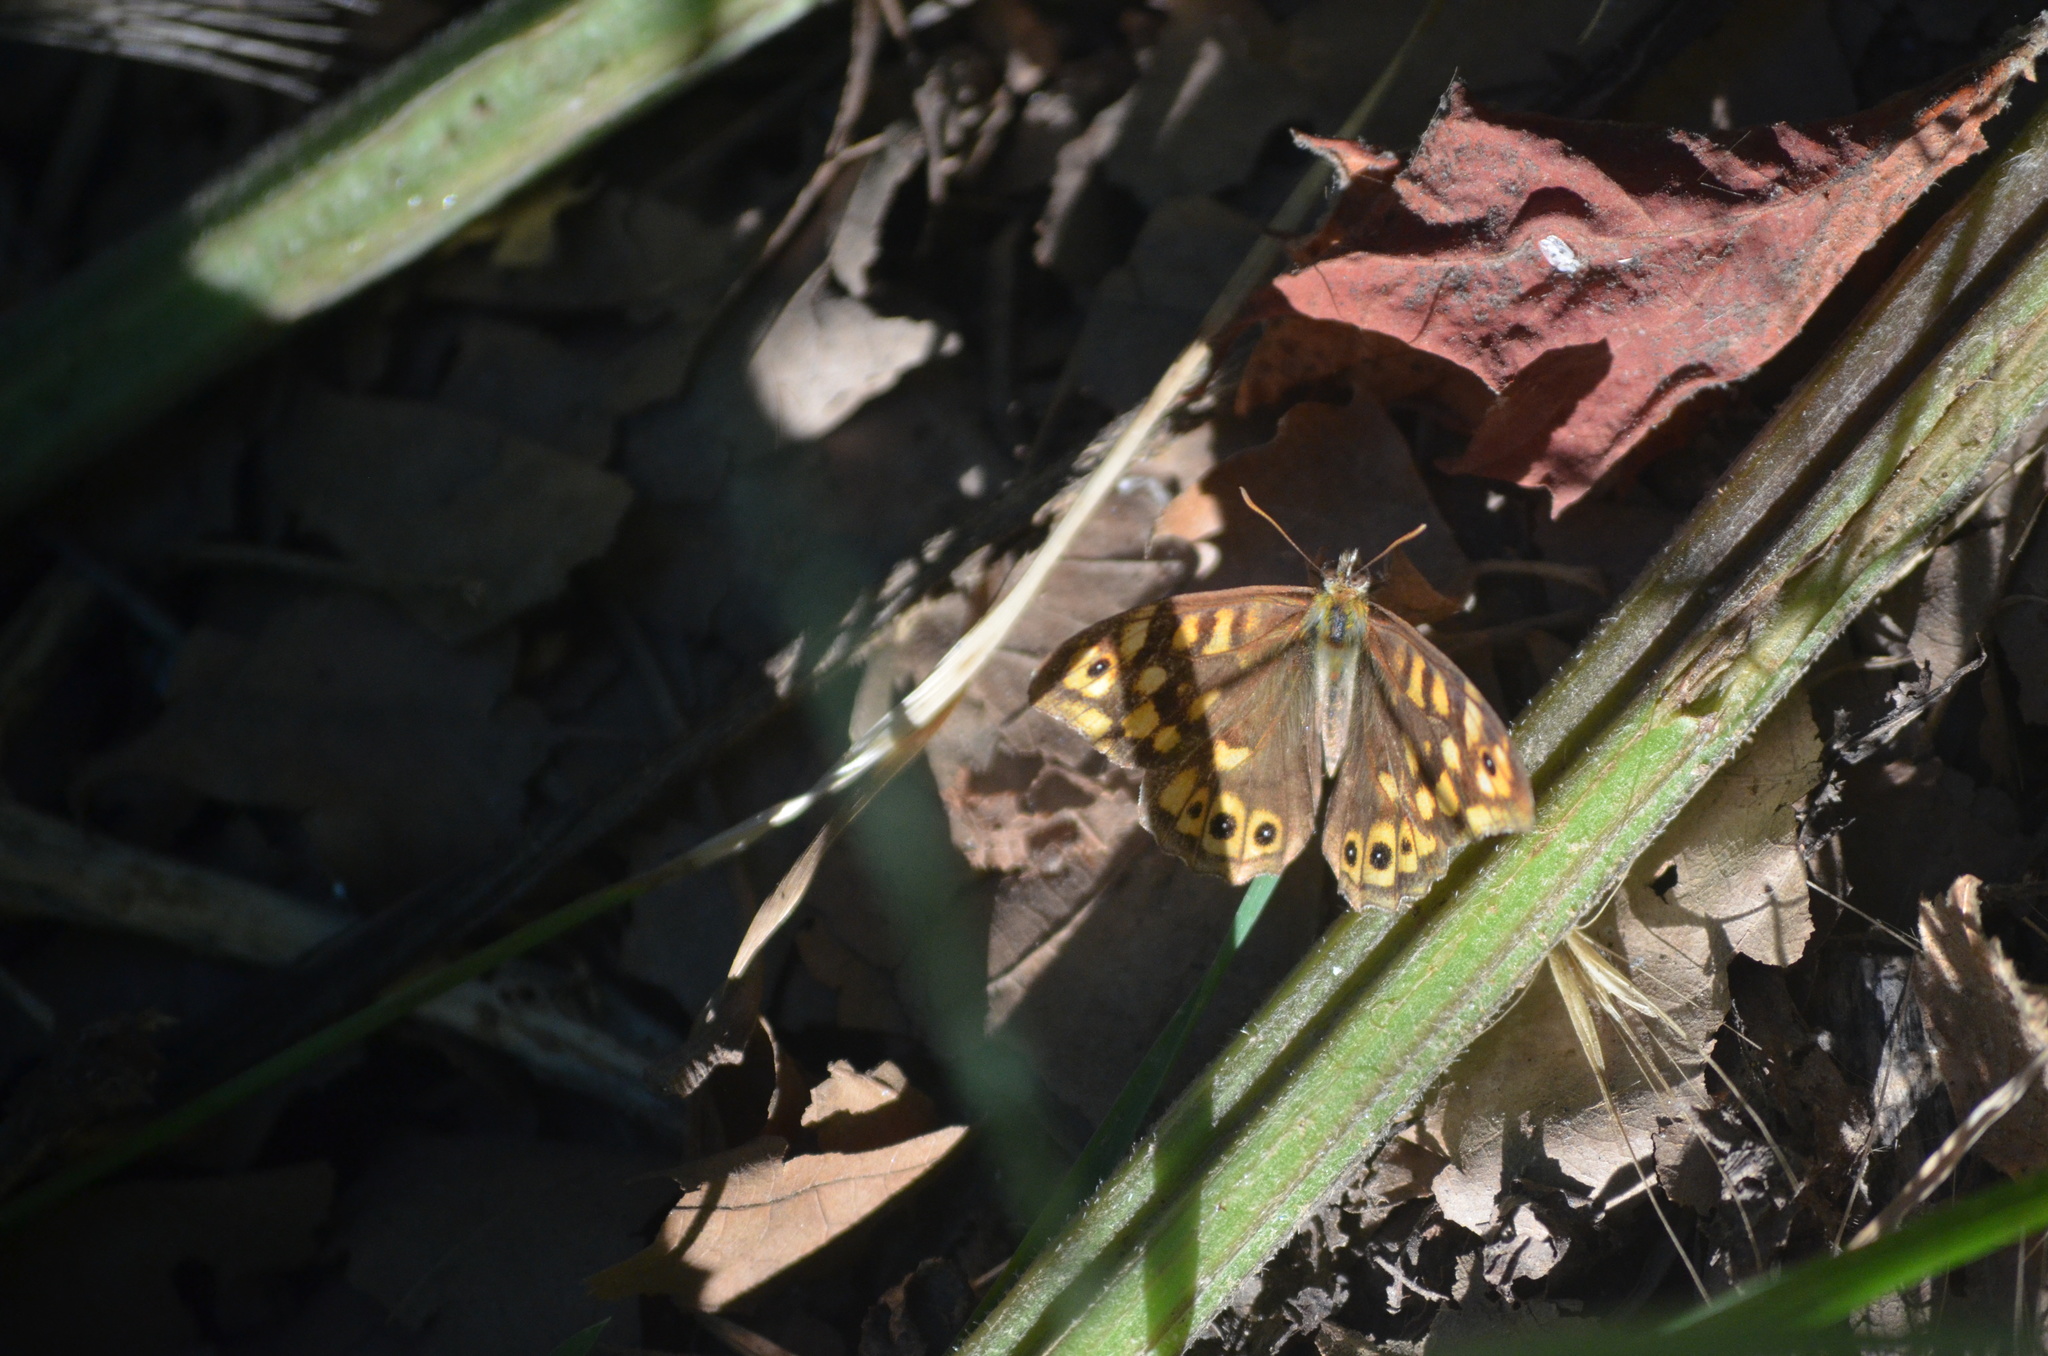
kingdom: Animalia
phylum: Arthropoda
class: Insecta
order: Lepidoptera
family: Nymphalidae
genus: Pararge
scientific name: Pararge aegeria
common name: Speckled wood
